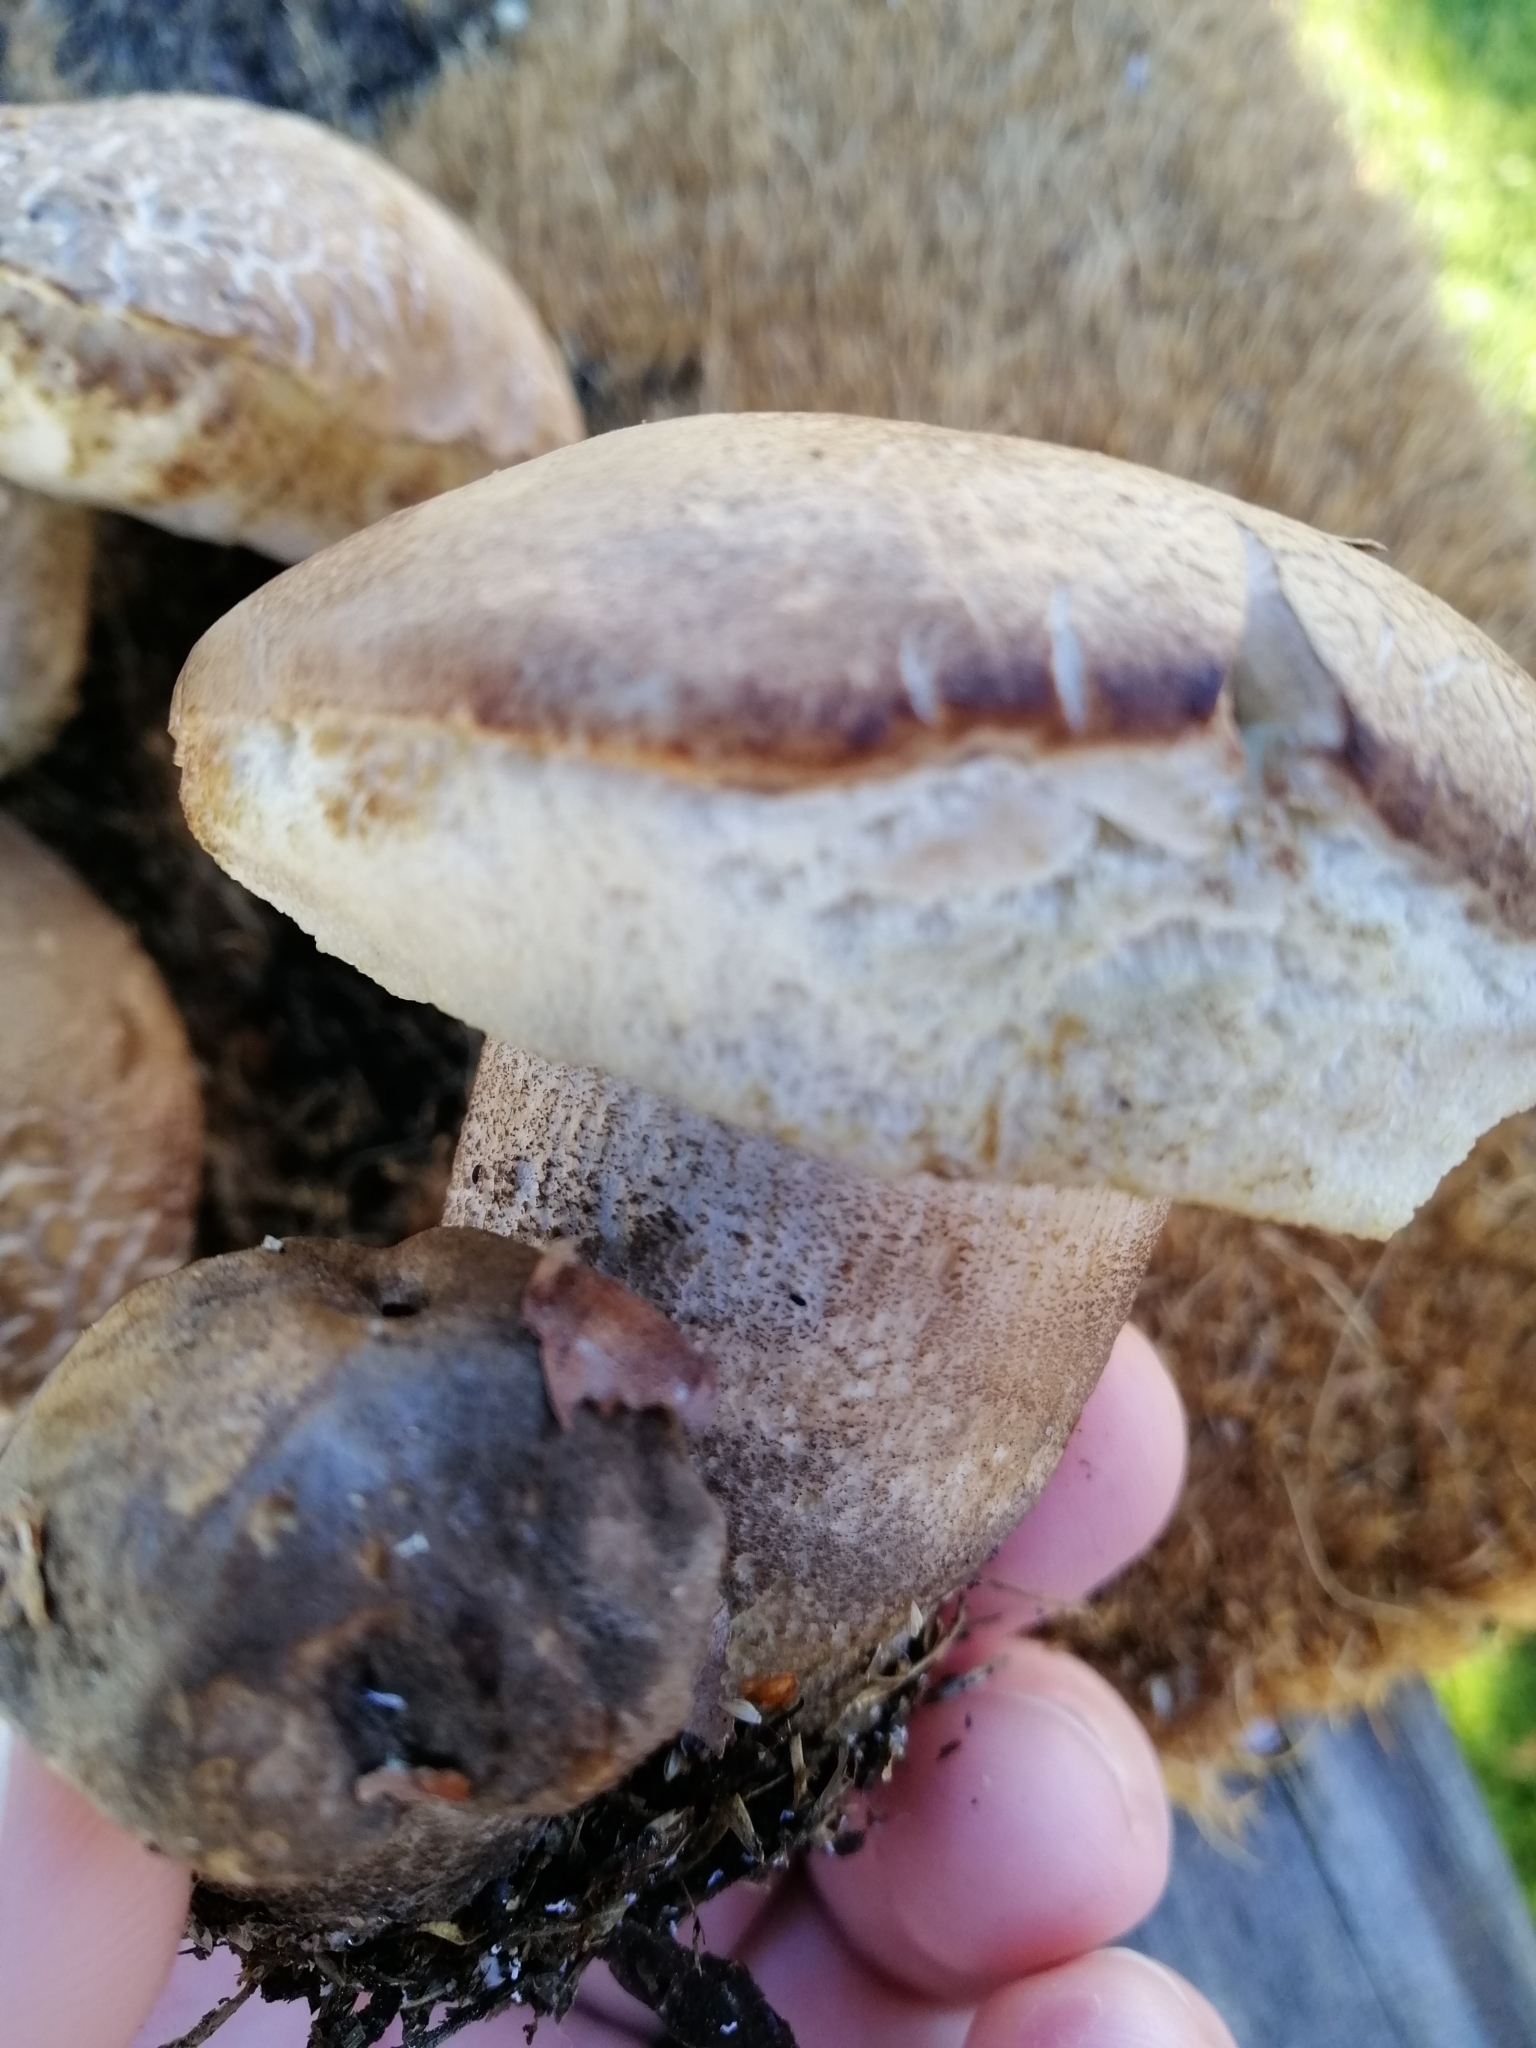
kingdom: Fungi
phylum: Basidiomycota
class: Agaricomycetes
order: Boletales
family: Boletaceae
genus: Leccinum
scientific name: Leccinum scabrum
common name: Blushing bolete
